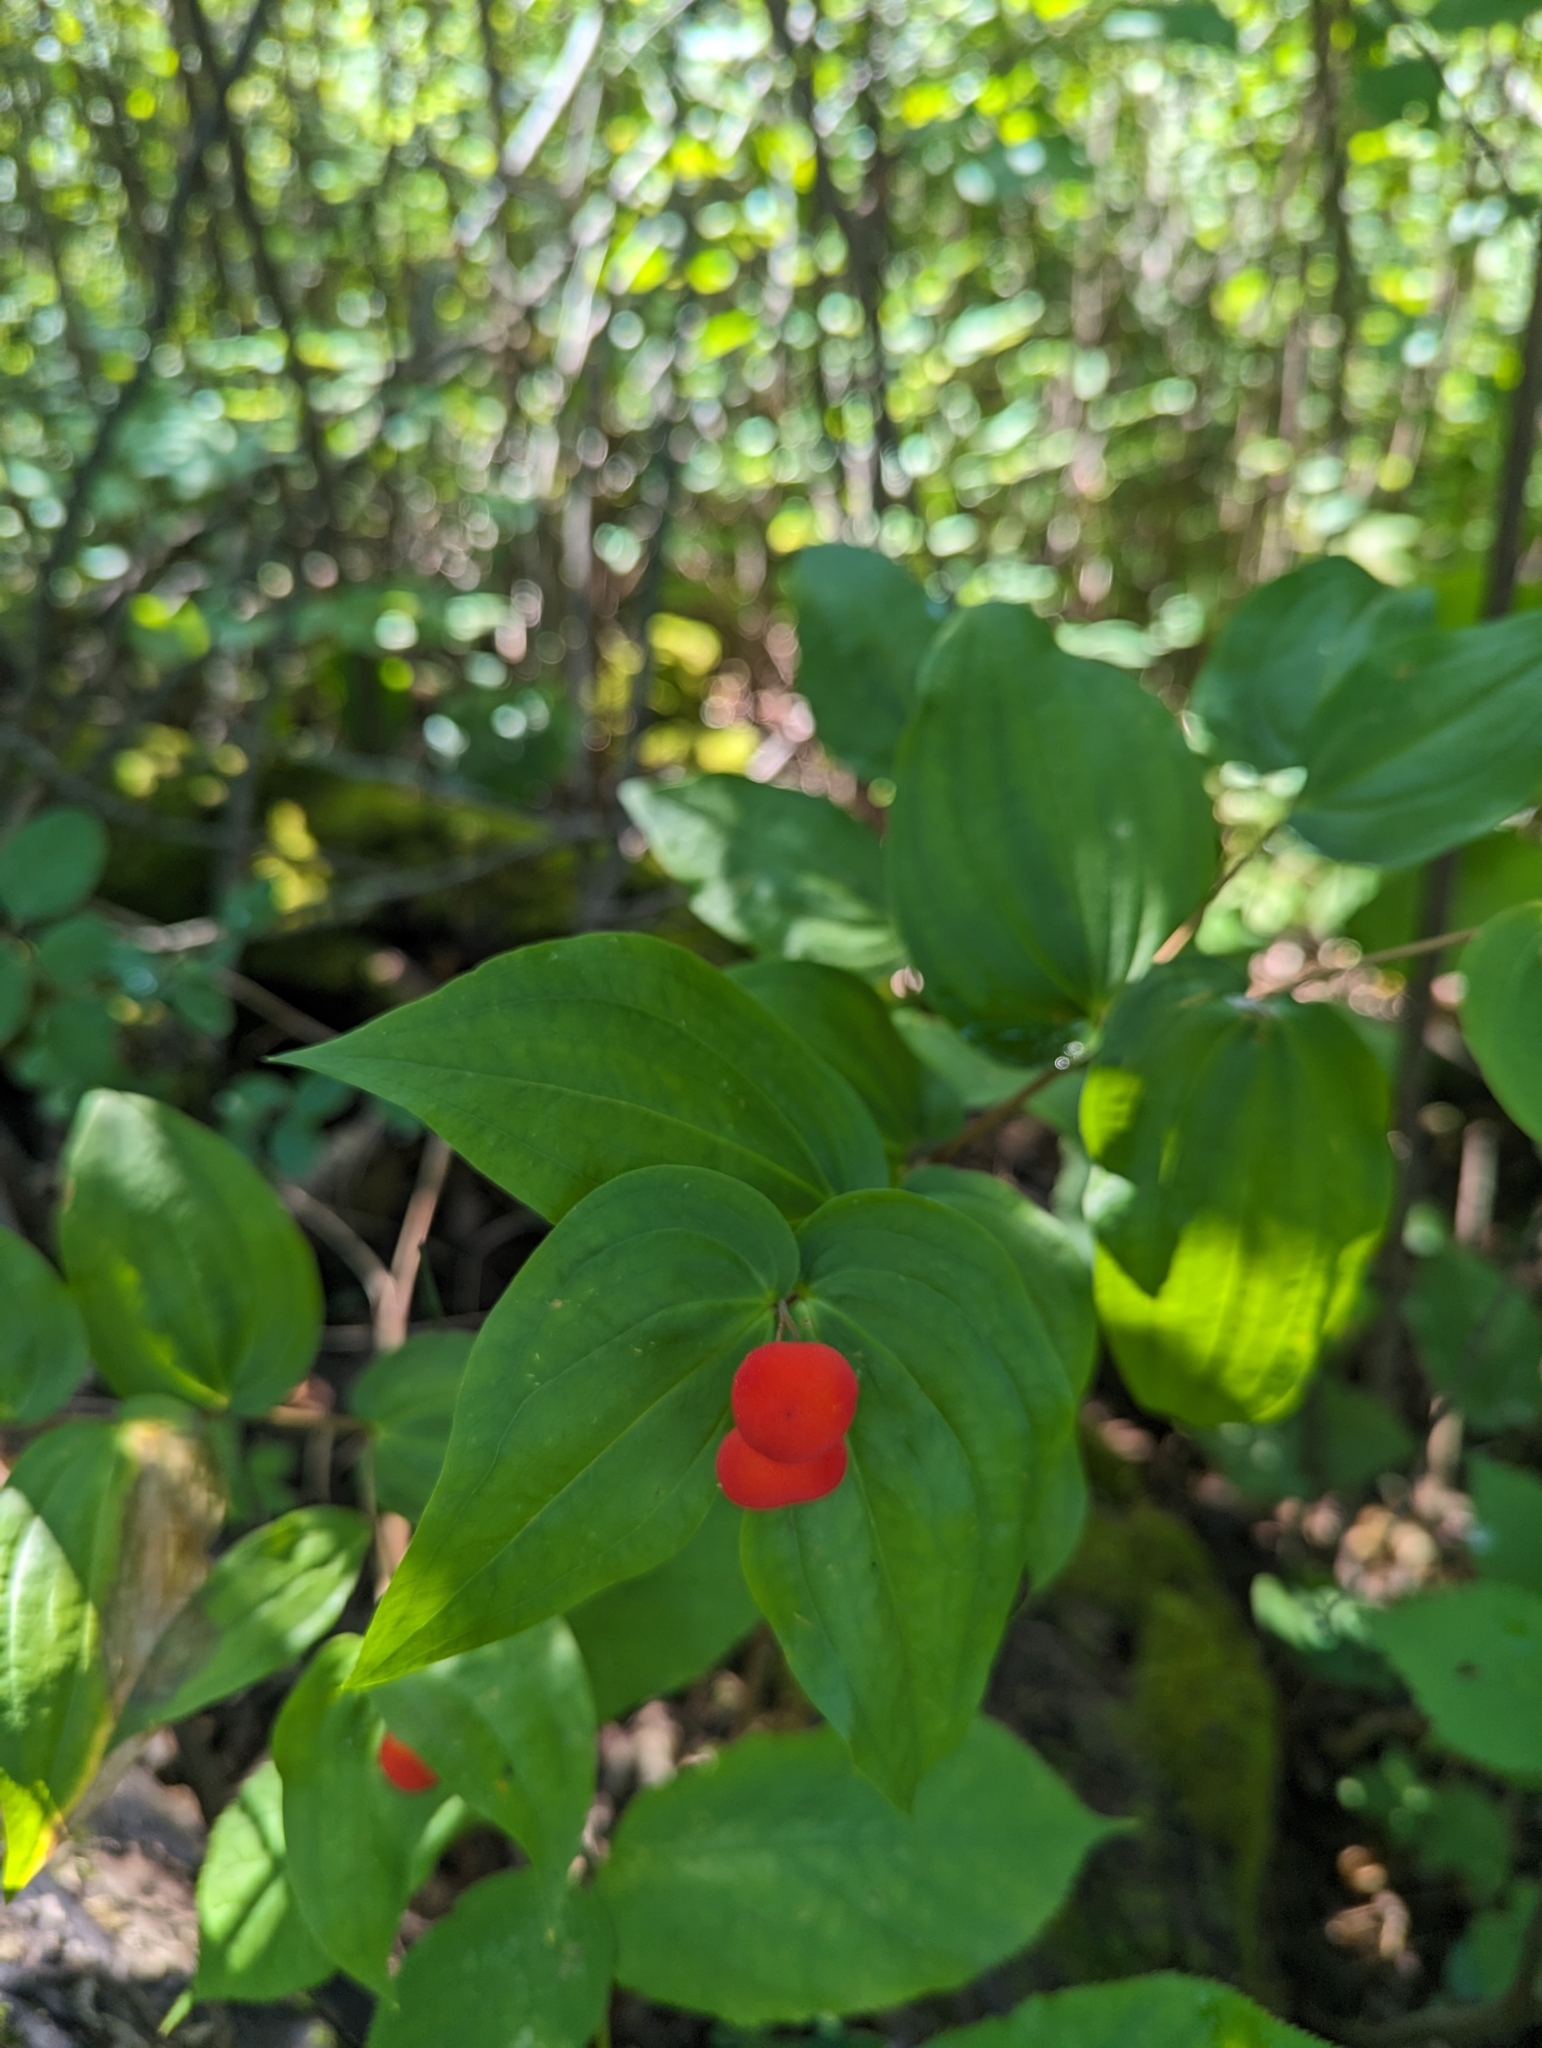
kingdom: Plantae
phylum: Tracheophyta
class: Liliopsida
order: Liliales
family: Liliaceae
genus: Prosartes
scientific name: Prosartes trachycarpa
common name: Rough-fruit fairy-bells
